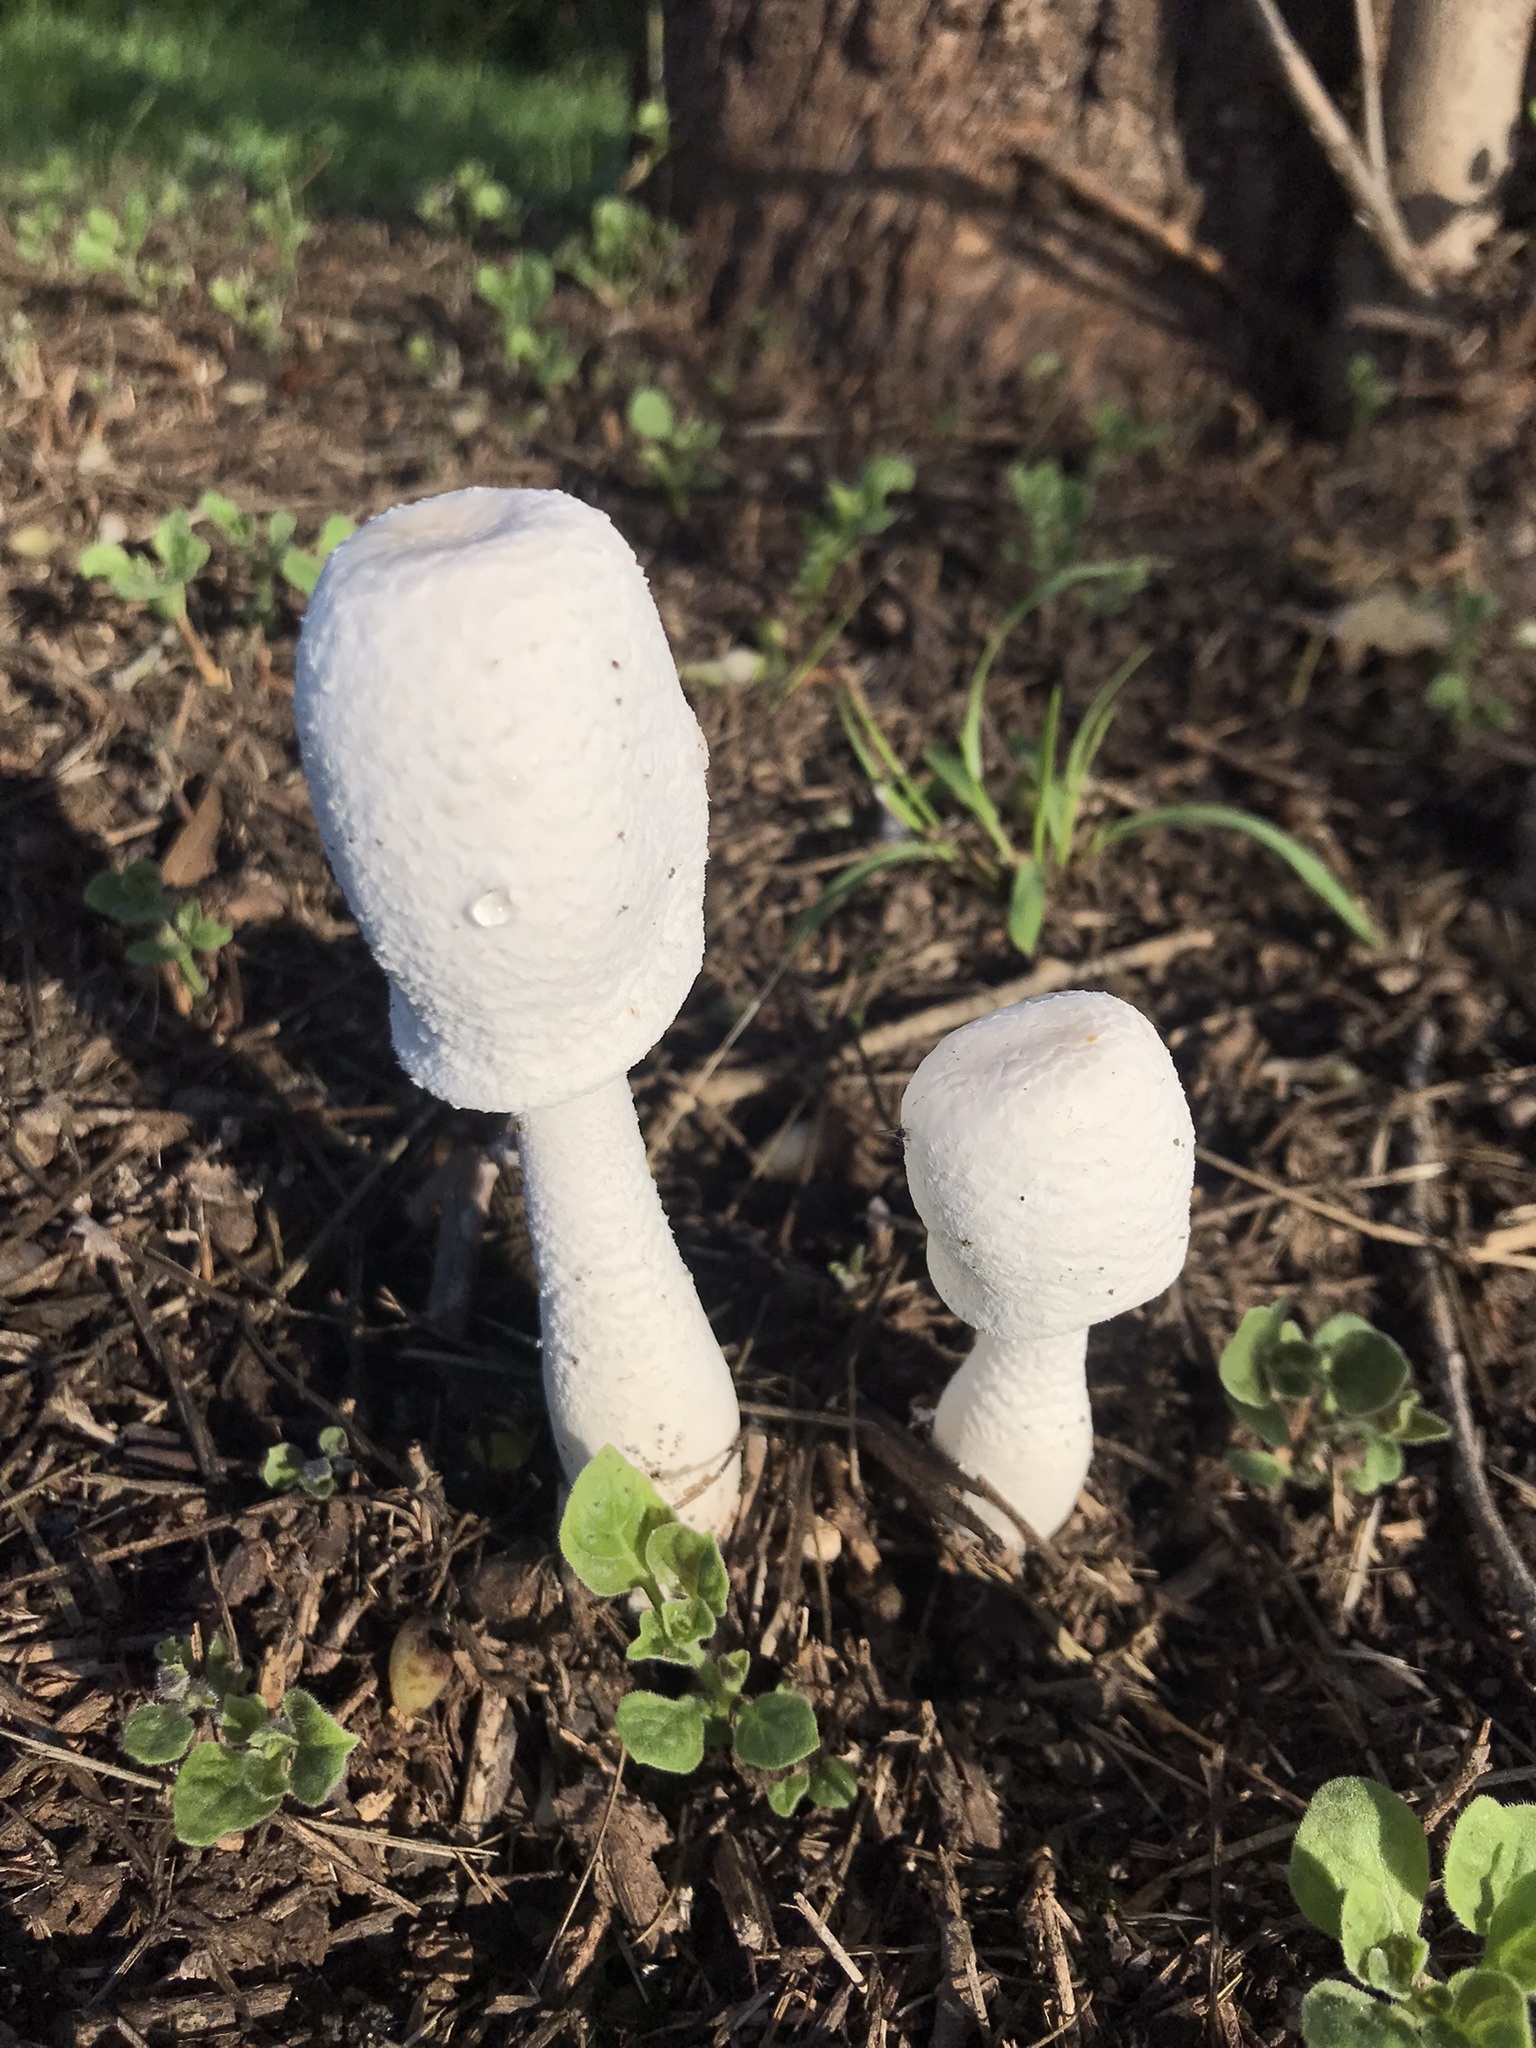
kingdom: Fungi
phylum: Basidiomycota
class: Agaricomycetes
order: Agaricales
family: Agaricaceae
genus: Leucocoprinus
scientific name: Leucocoprinus cepistipes
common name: Onion-stalk parasol
